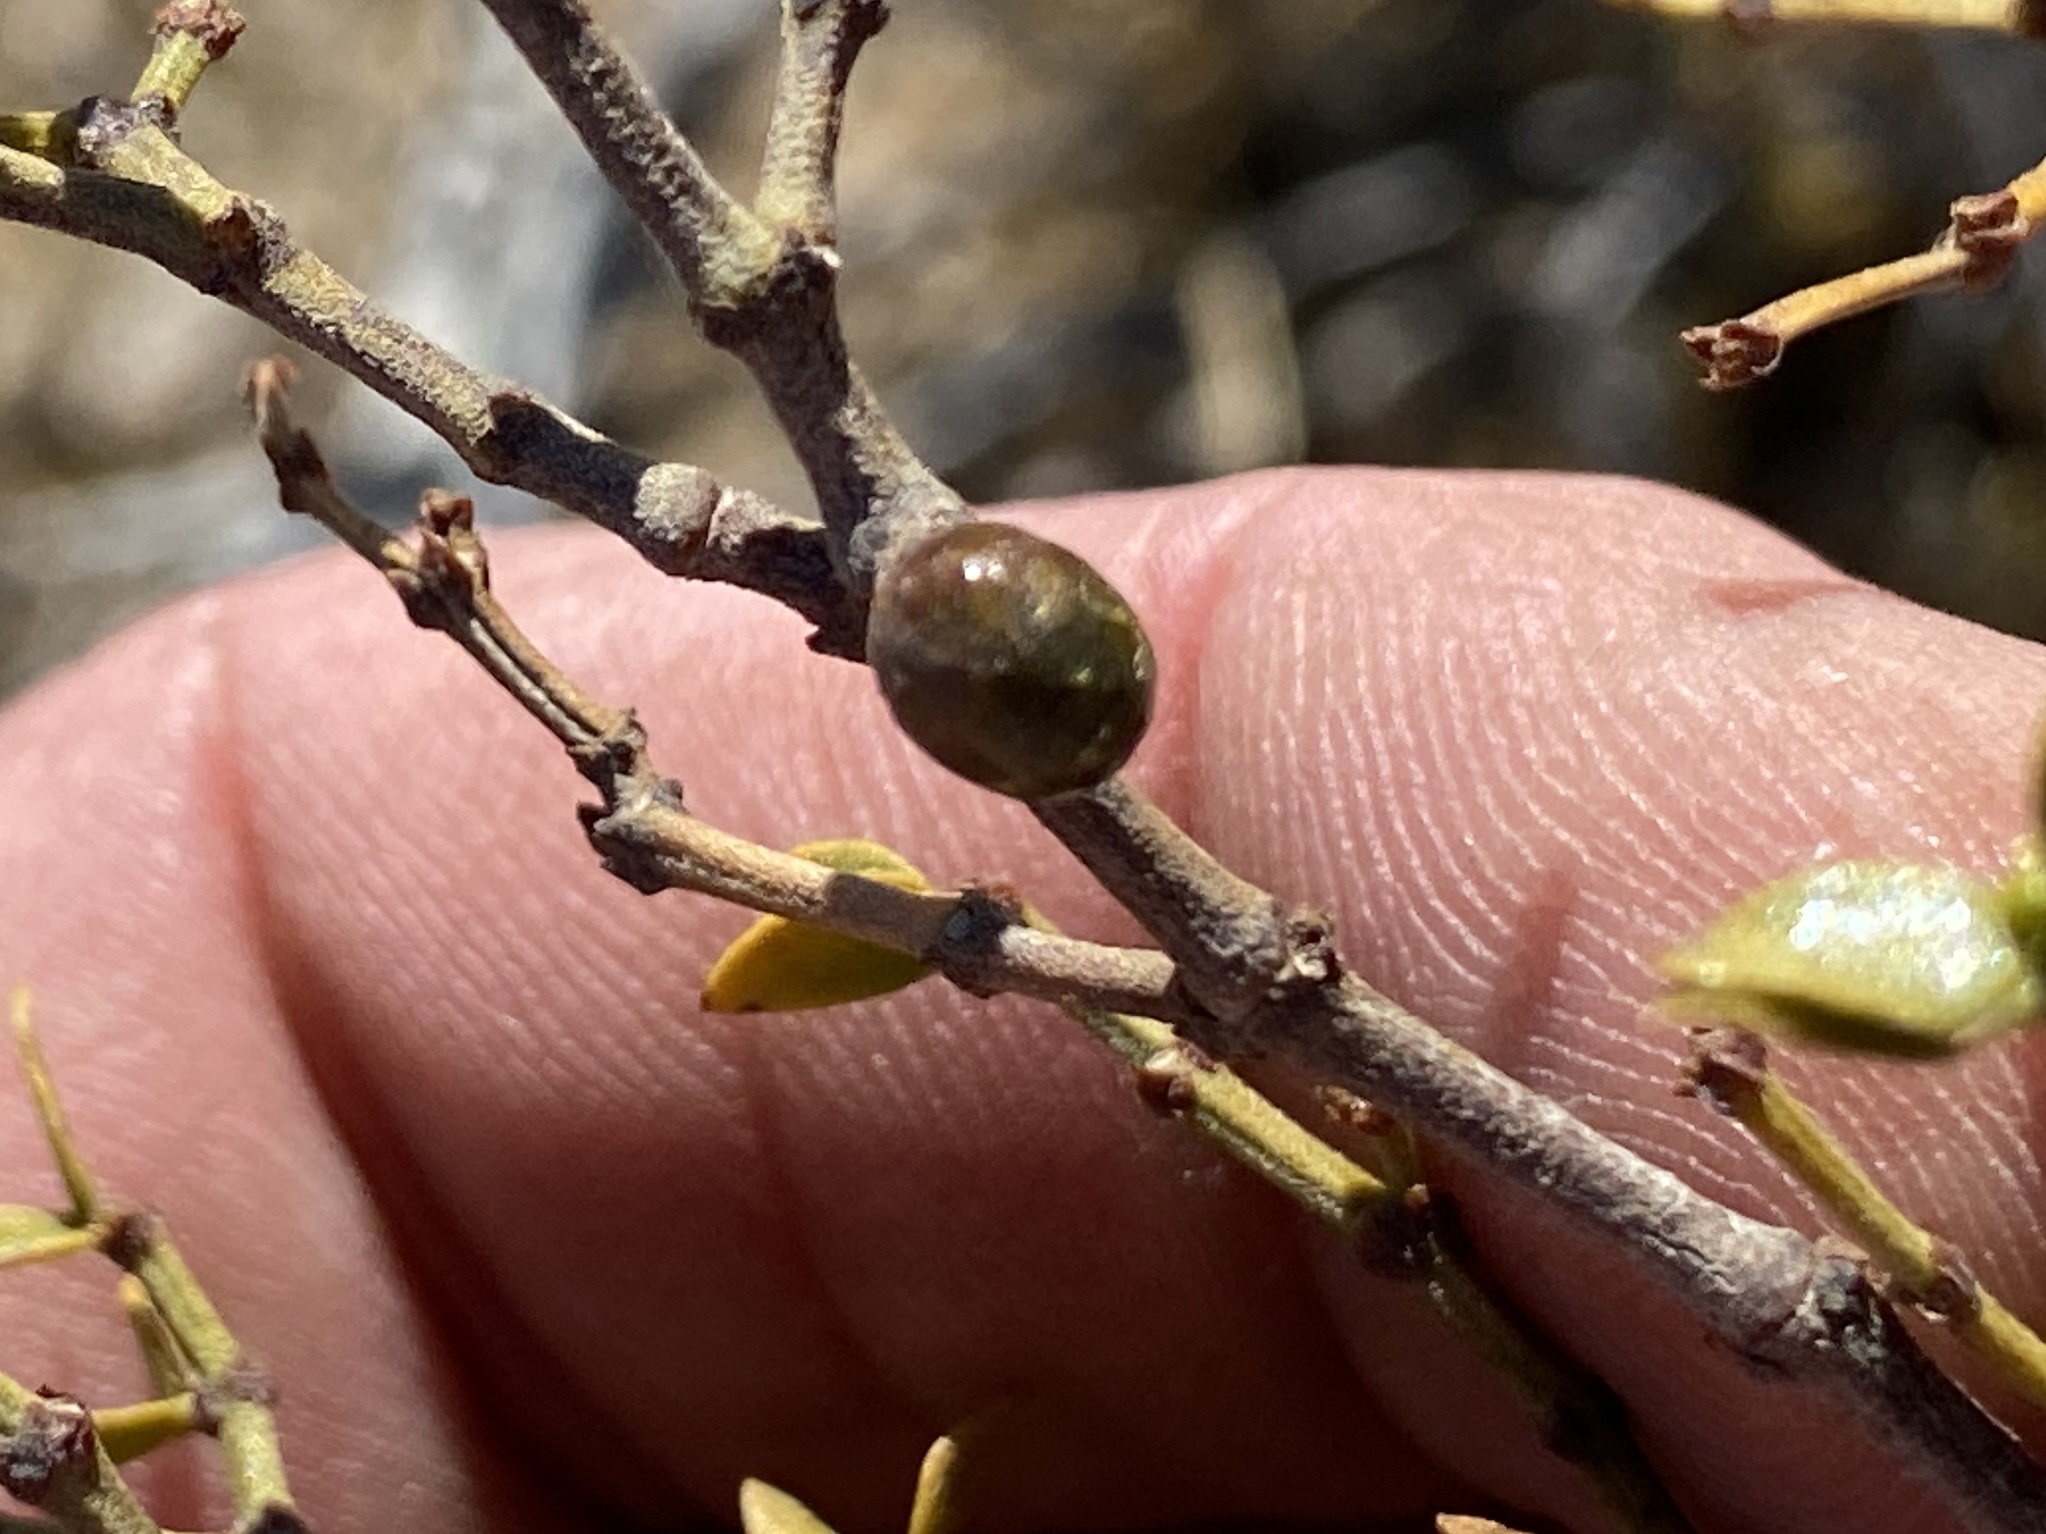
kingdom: Animalia
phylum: Arthropoda
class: Insecta
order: Diptera
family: Cecidomyiidae
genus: Asphondylia
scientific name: Asphondylia resinosa
